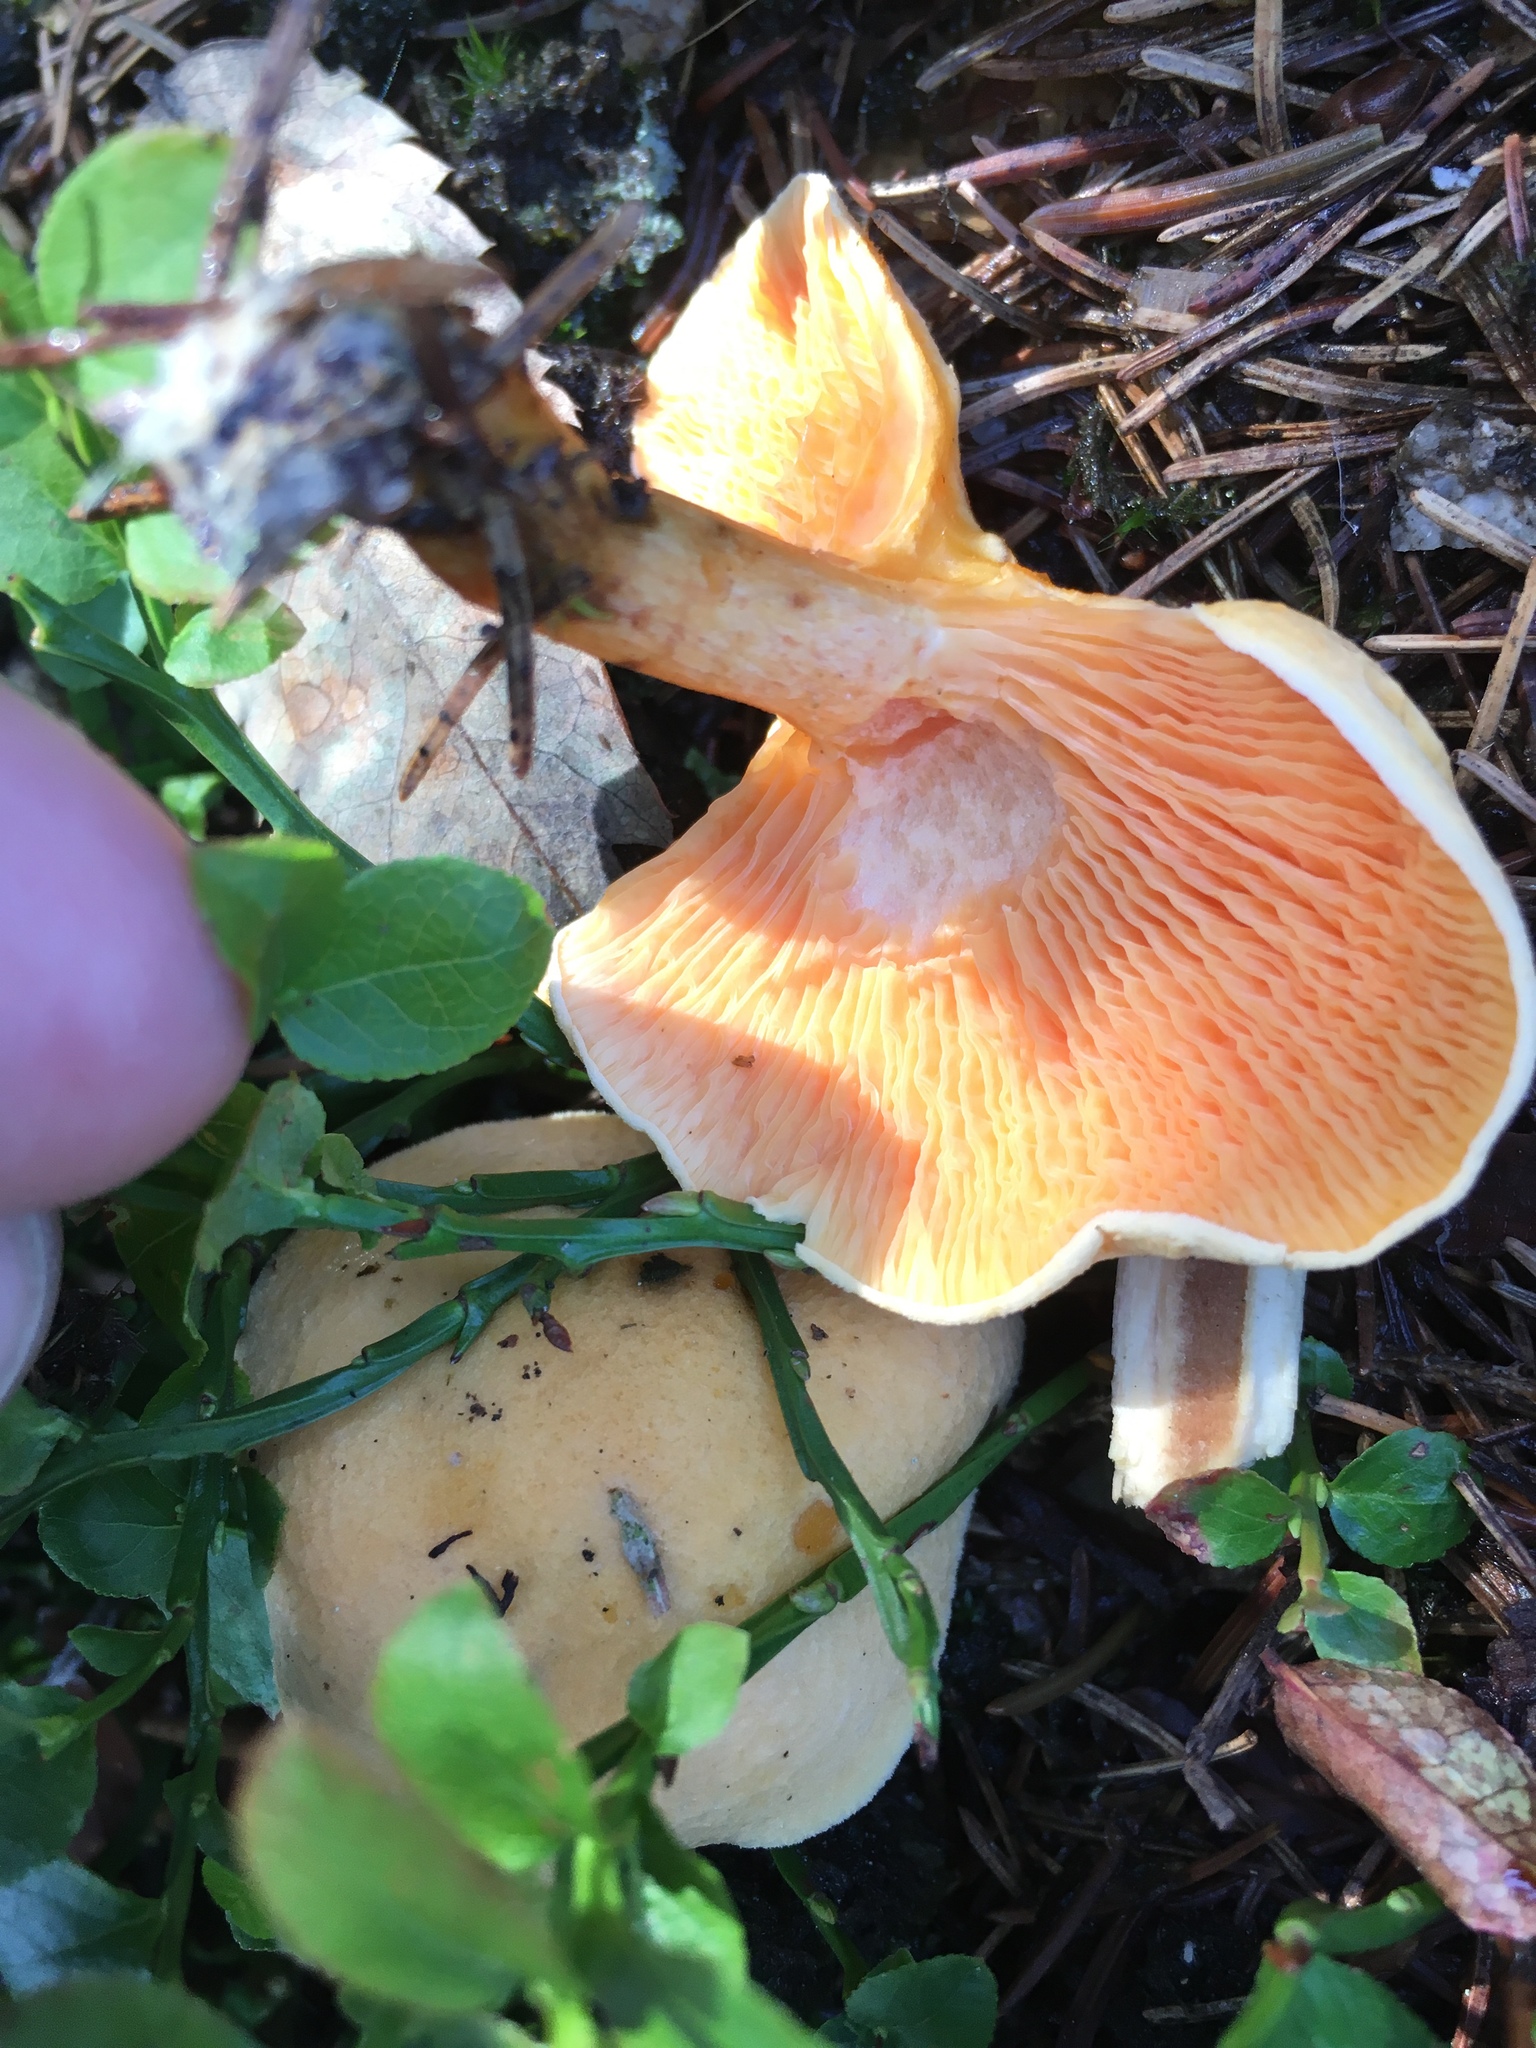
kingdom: Fungi
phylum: Basidiomycota
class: Agaricomycetes
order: Boletales
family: Hygrophoropsidaceae
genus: Hygrophoropsis
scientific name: Hygrophoropsis aurantiaca
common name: False chanterelle
